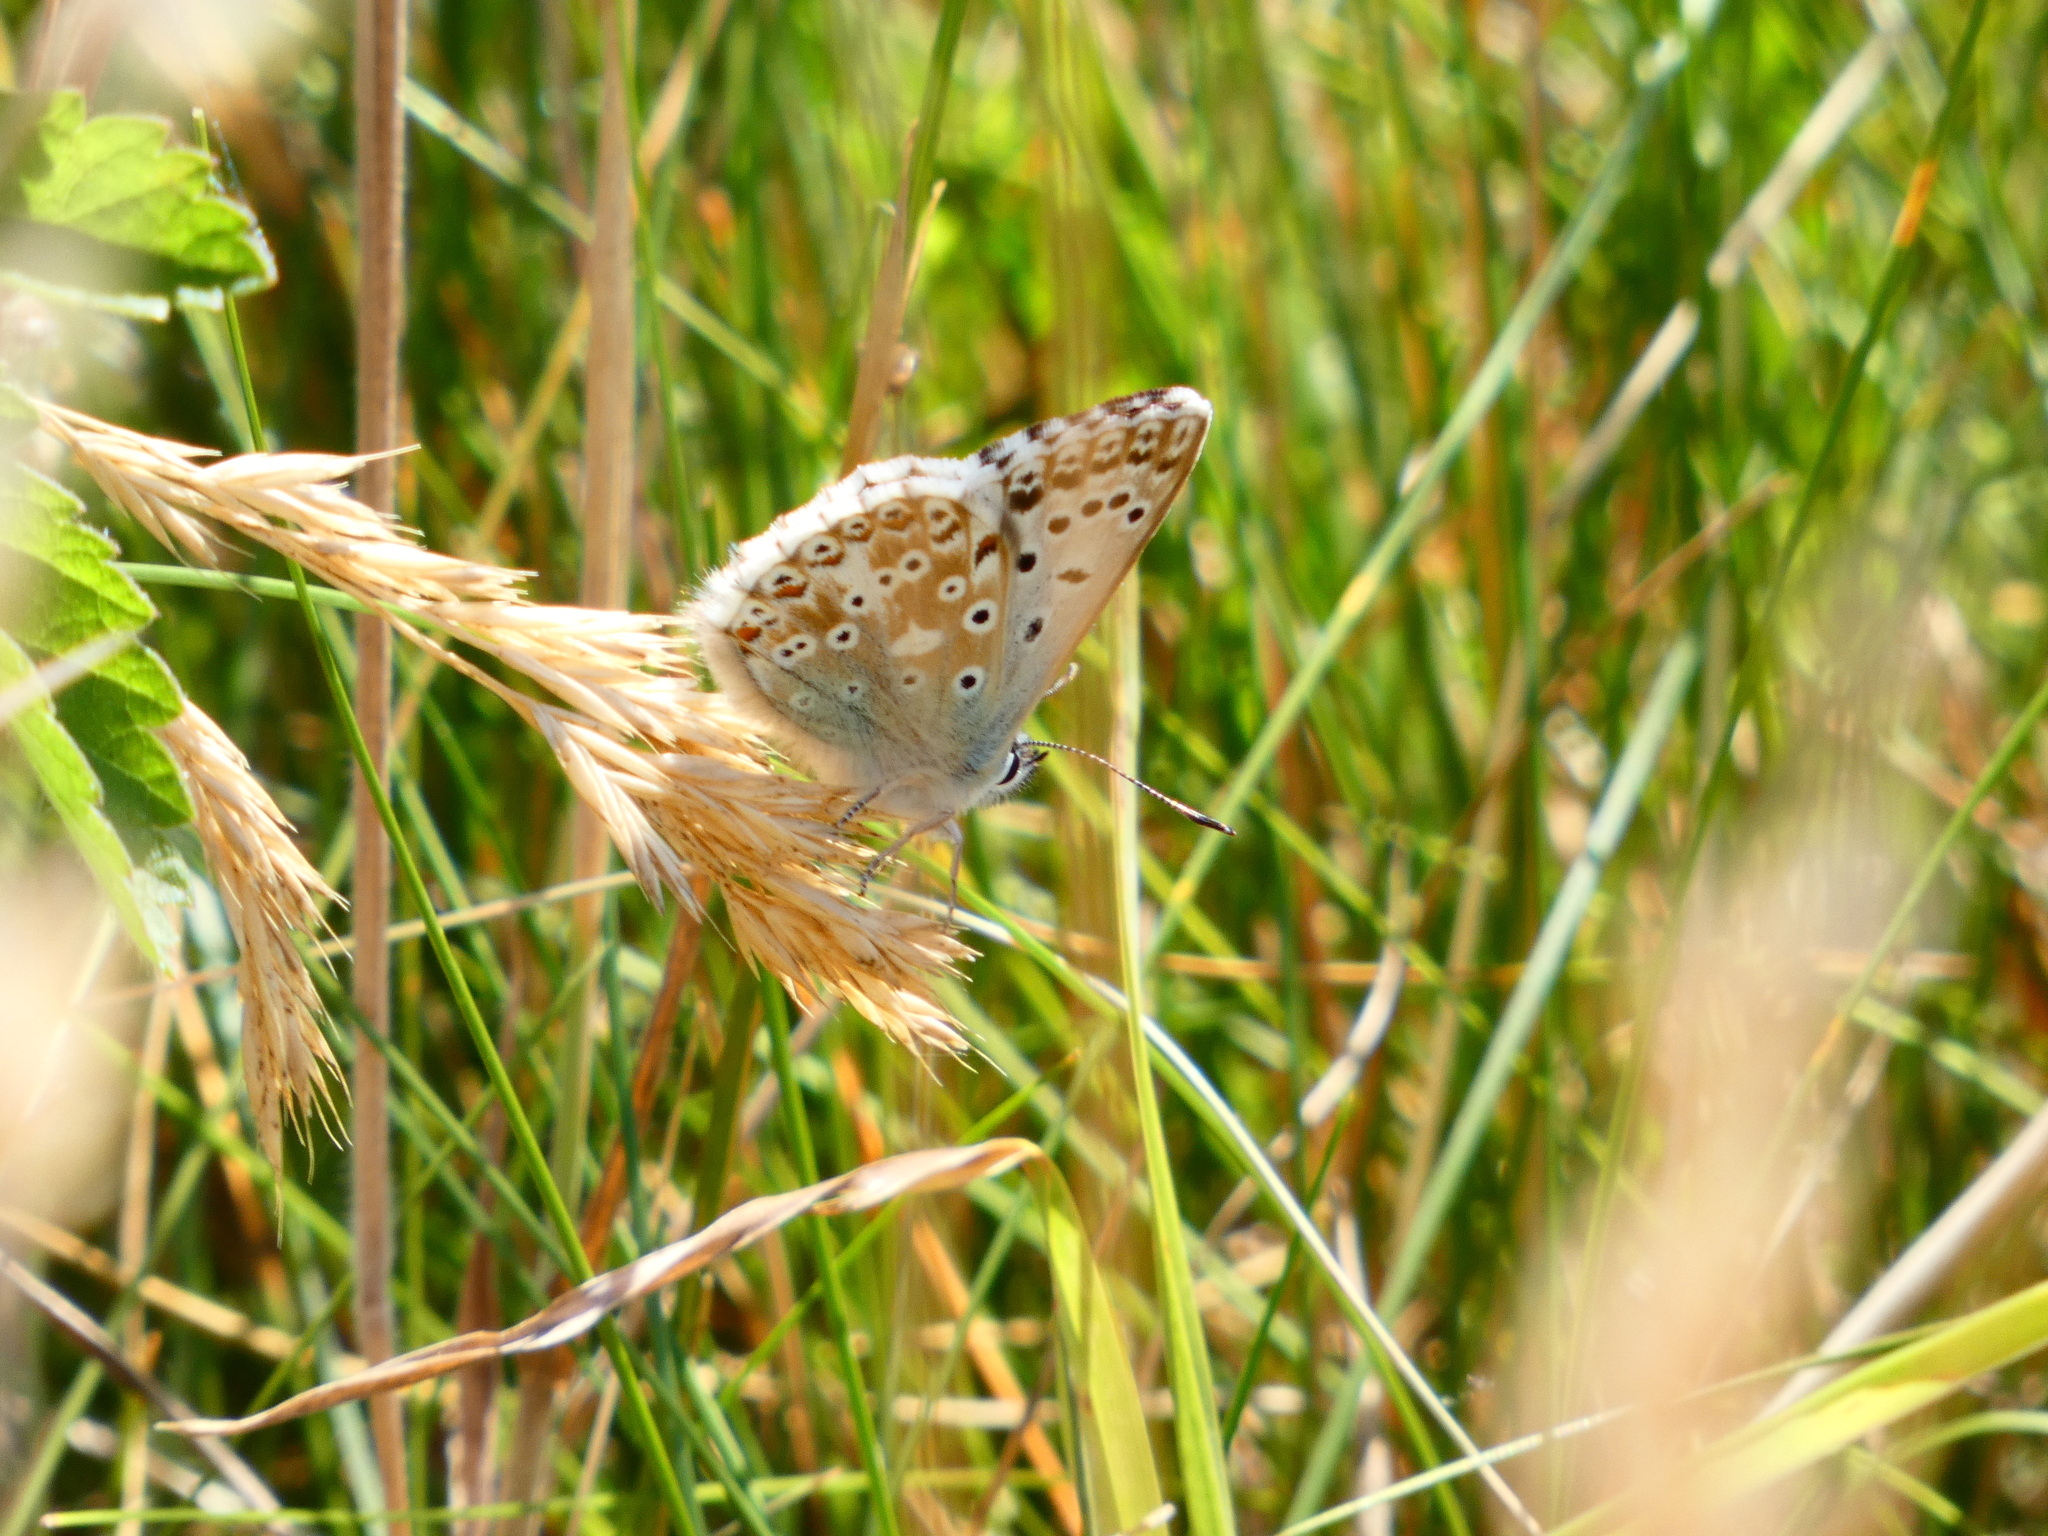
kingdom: Animalia
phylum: Arthropoda
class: Insecta
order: Lepidoptera
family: Lycaenidae
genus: Lysandra
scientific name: Lysandra coridon
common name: Chalkhill blue
